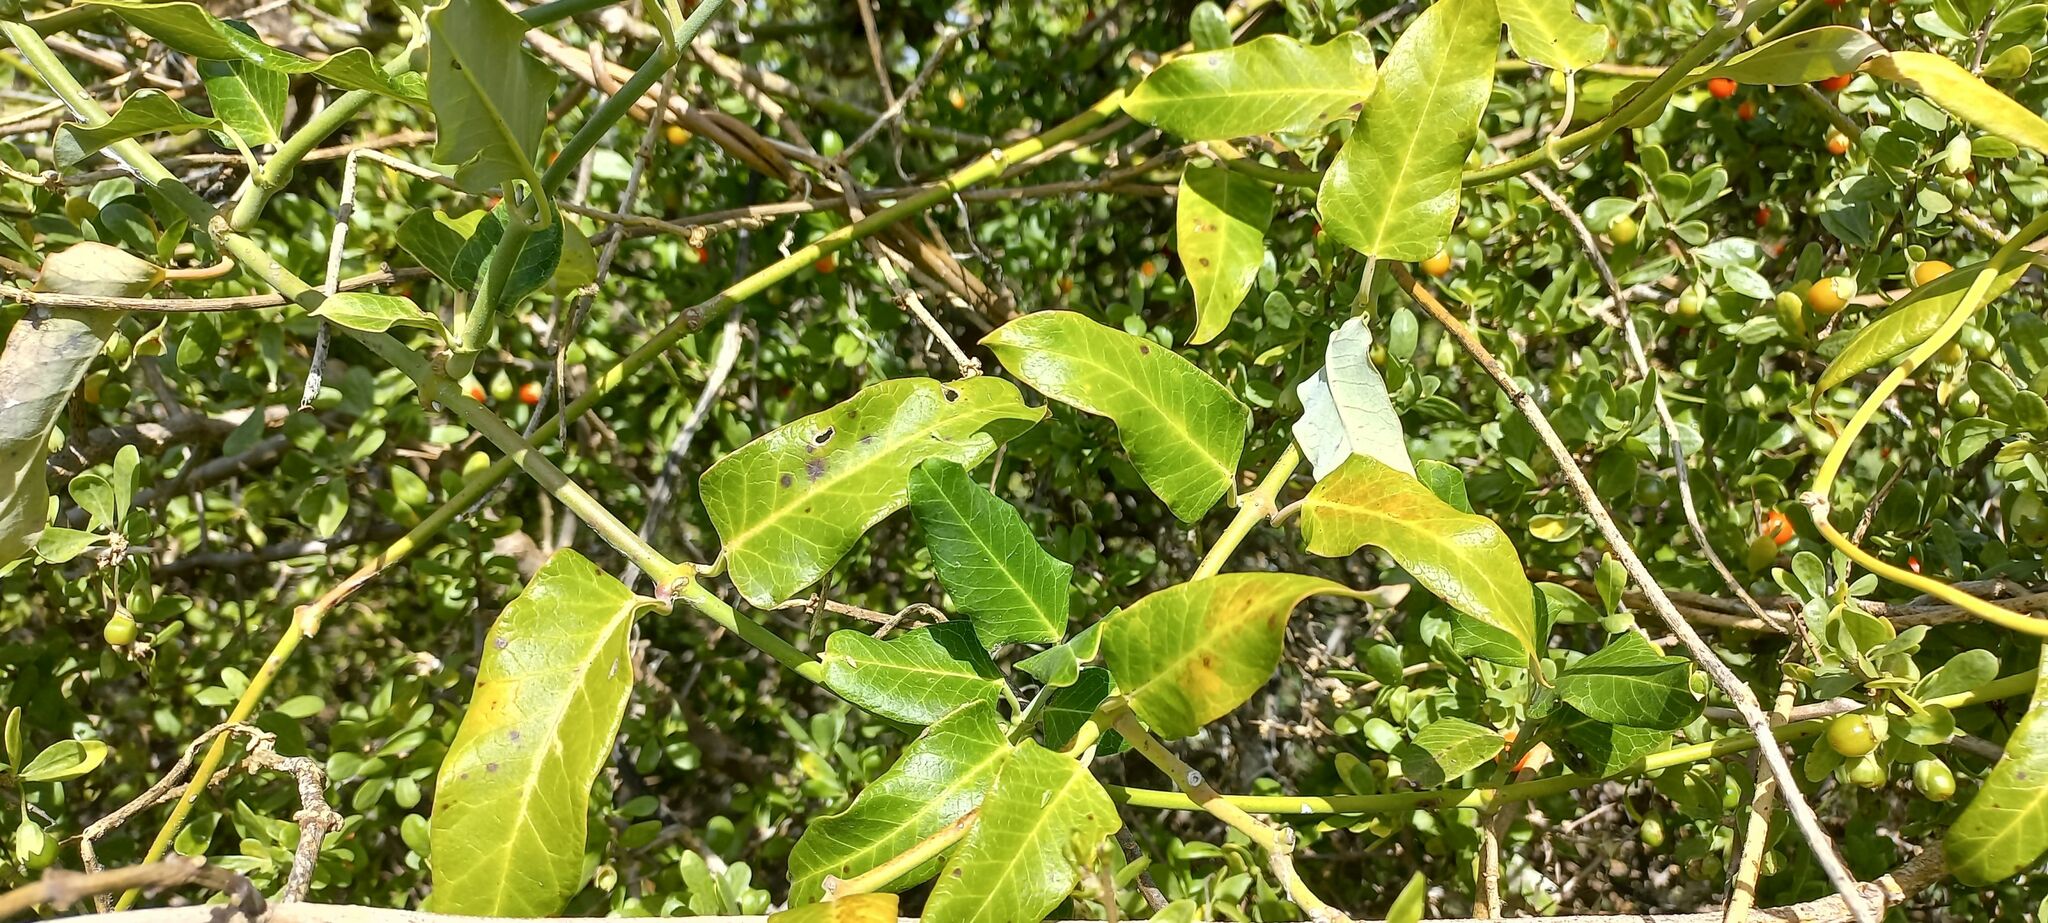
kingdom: Plantae
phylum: Tracheophyta
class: Magnoliopsida
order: Gentianales
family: Apocynaceae
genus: Araujia
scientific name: Araujia sericifera
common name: White bladderflower
